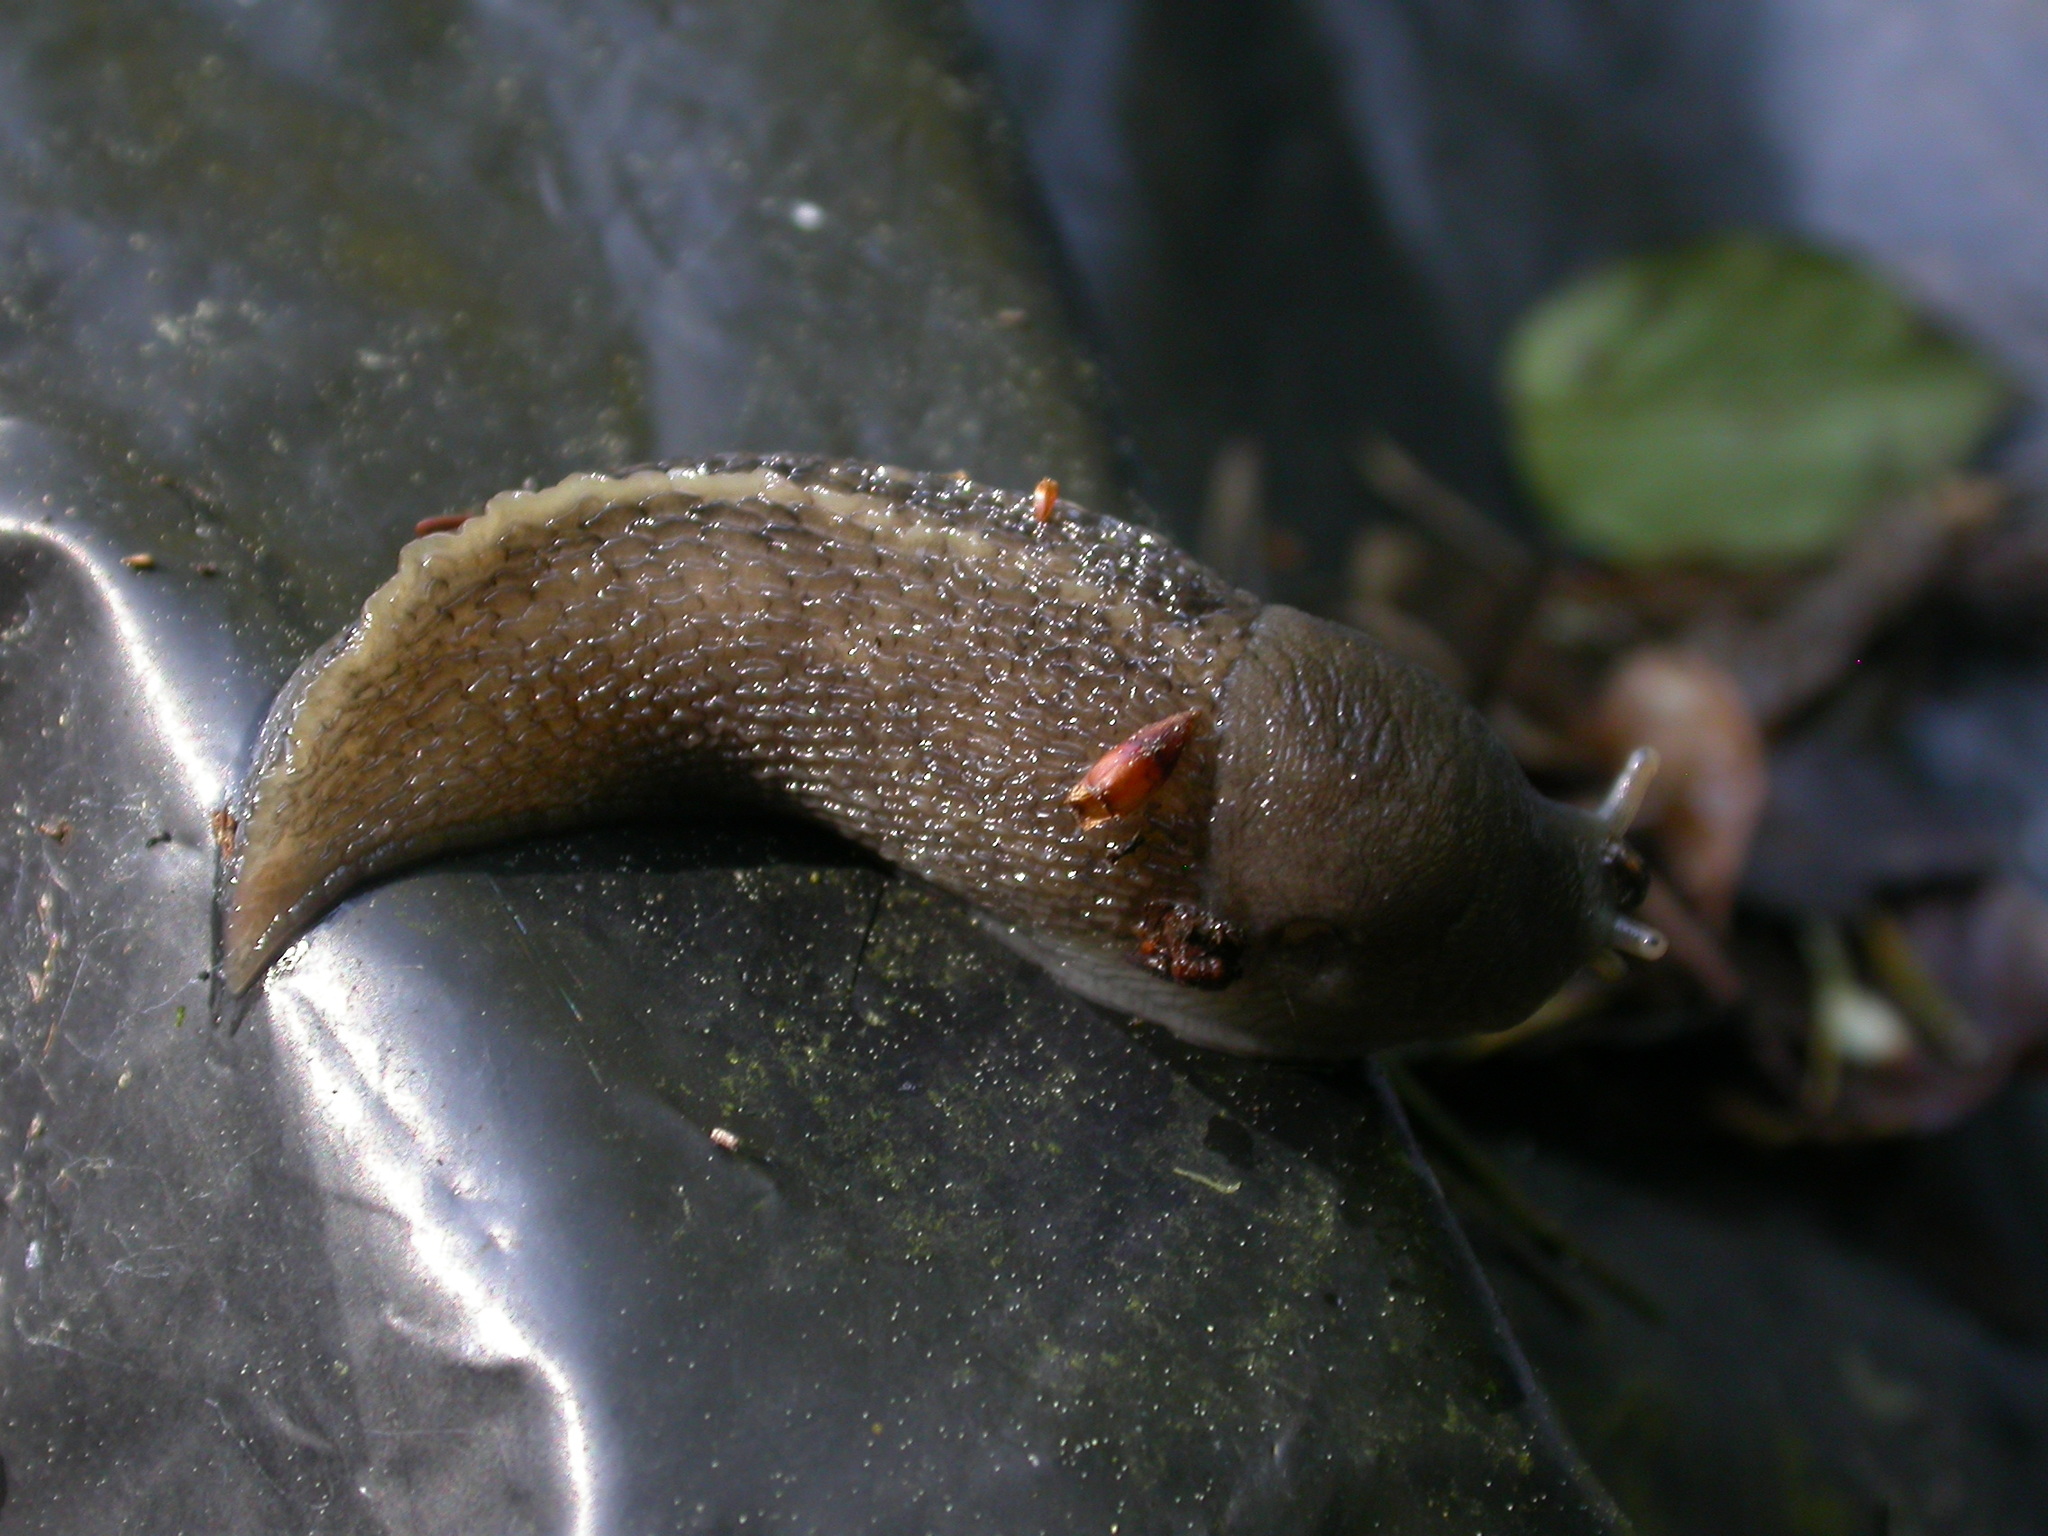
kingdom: Animalia
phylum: Mollusca
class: Gastropoda
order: Stylommatophora
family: Limacidae
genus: Limax
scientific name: Limax cinereoniger
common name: Ash-black slug
